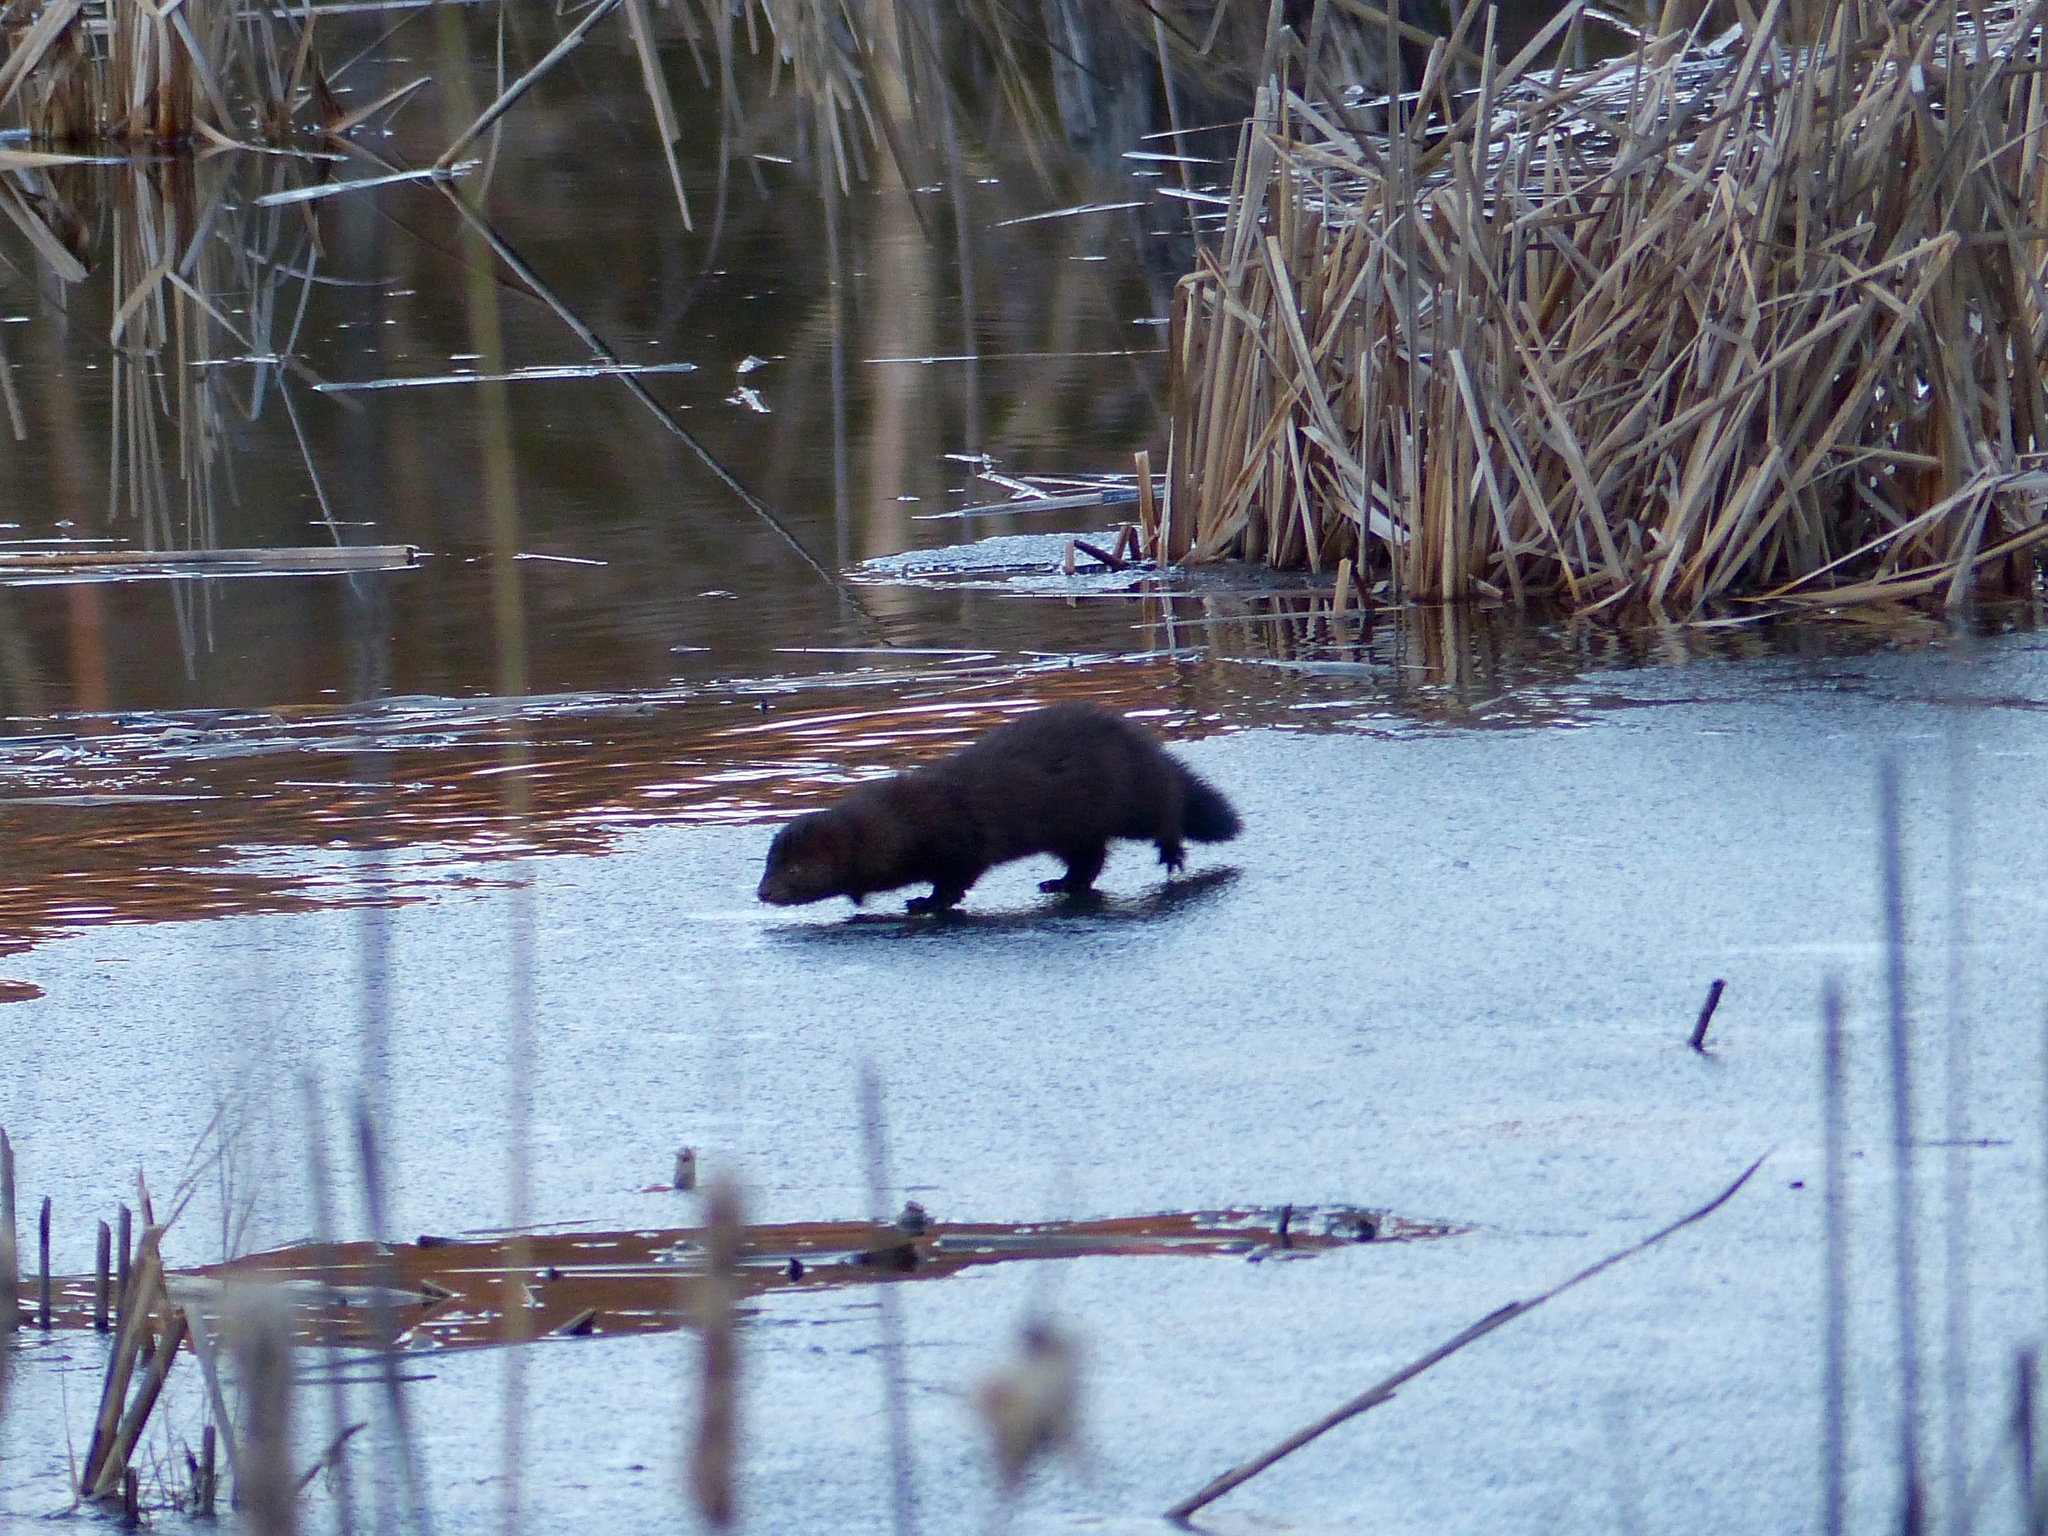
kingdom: Animalia
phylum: Chordata
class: Mammalia
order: Carnivora
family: Mustelidae
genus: Mustela
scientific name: Mustela
